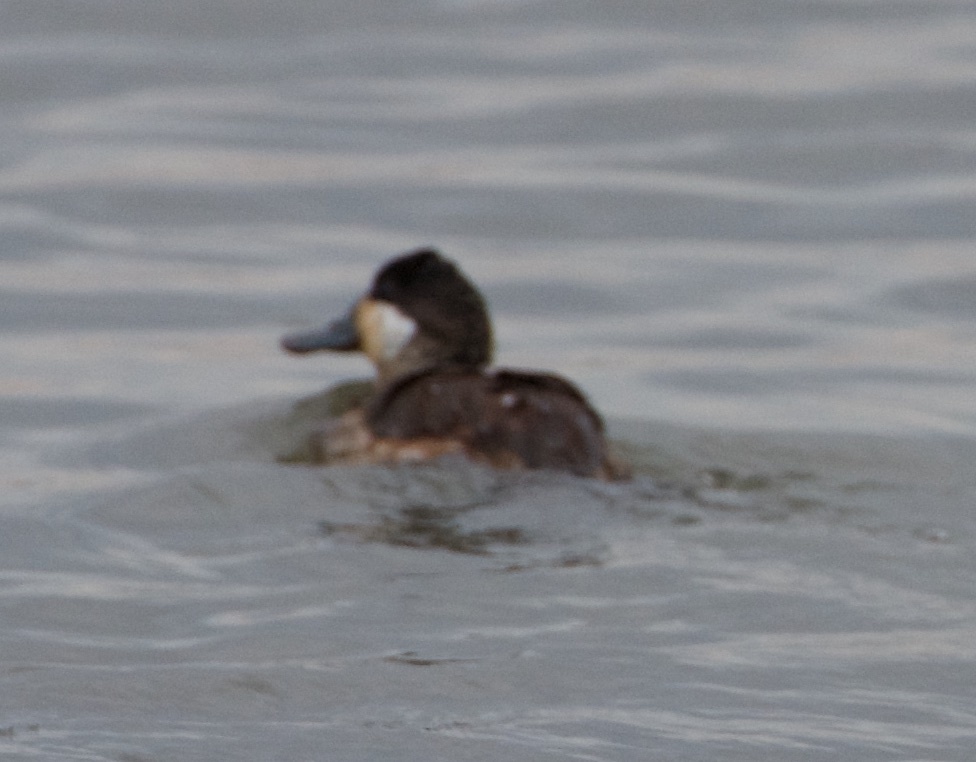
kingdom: Animalia
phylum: Chordata
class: Aves
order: Anseriformes
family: Anatidae
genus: Oxyura
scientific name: Oxyura jamaicensis
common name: Ruddy duck
